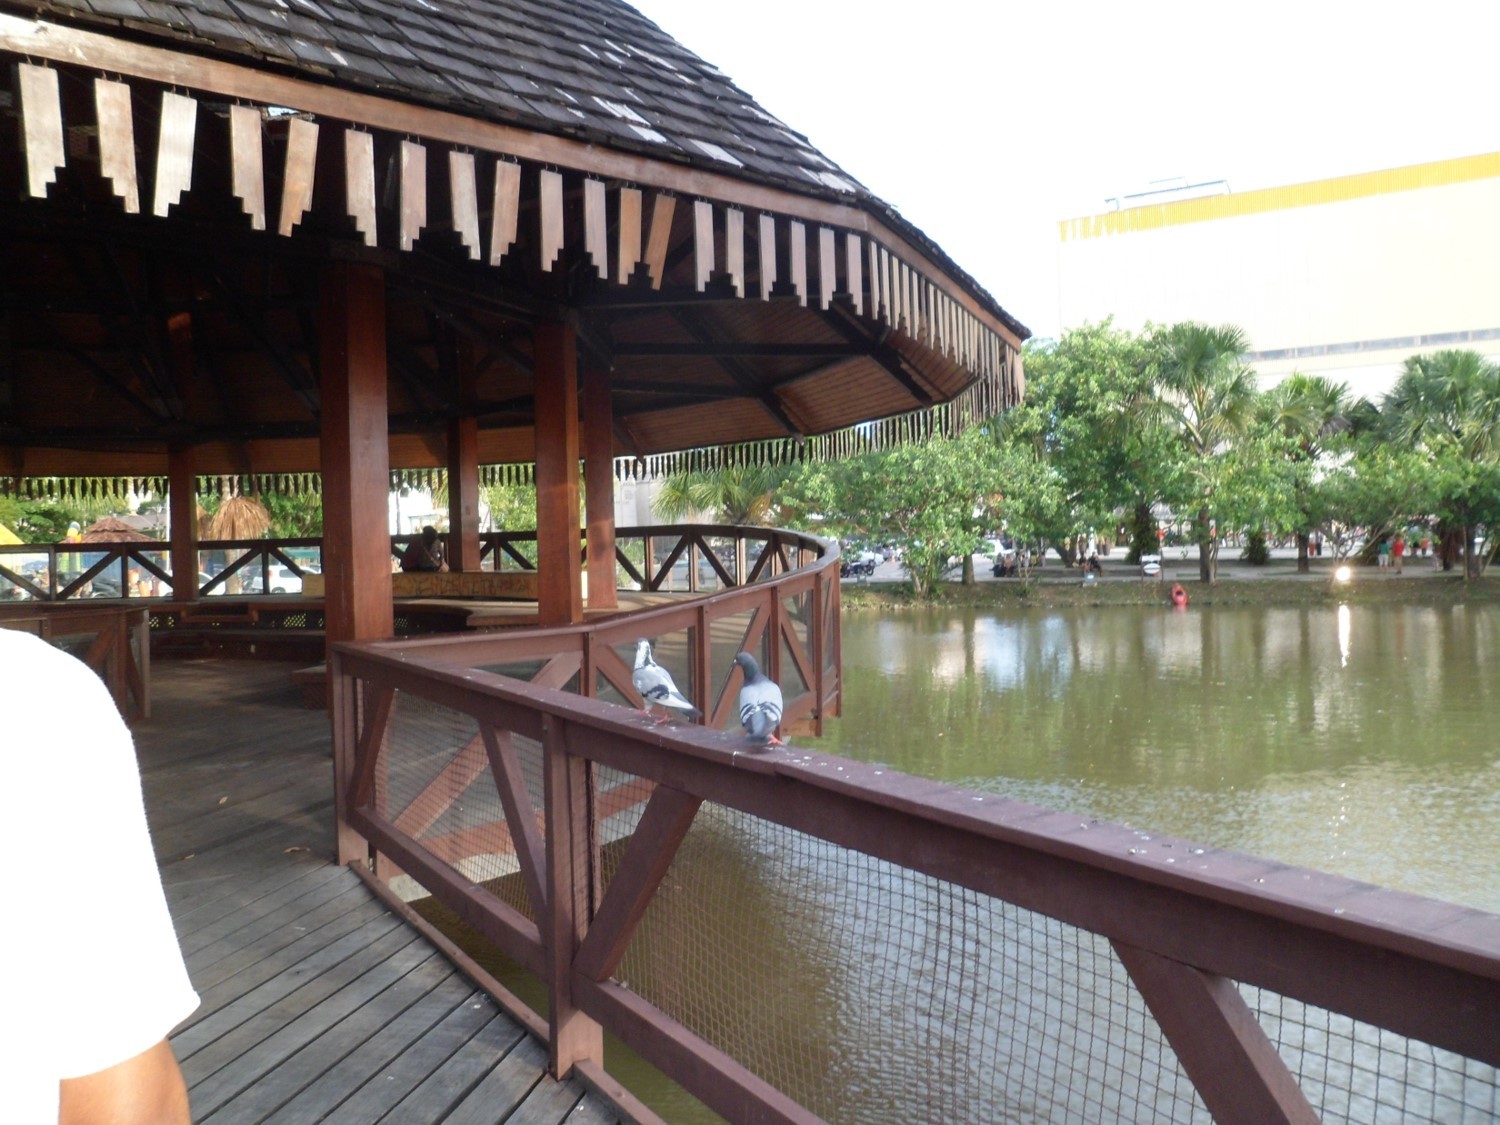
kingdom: Animalia
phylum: Chordata
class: Aves
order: Columbiformes
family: Columbidae
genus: Columba
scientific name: Columba livia
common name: Rock pigeon
